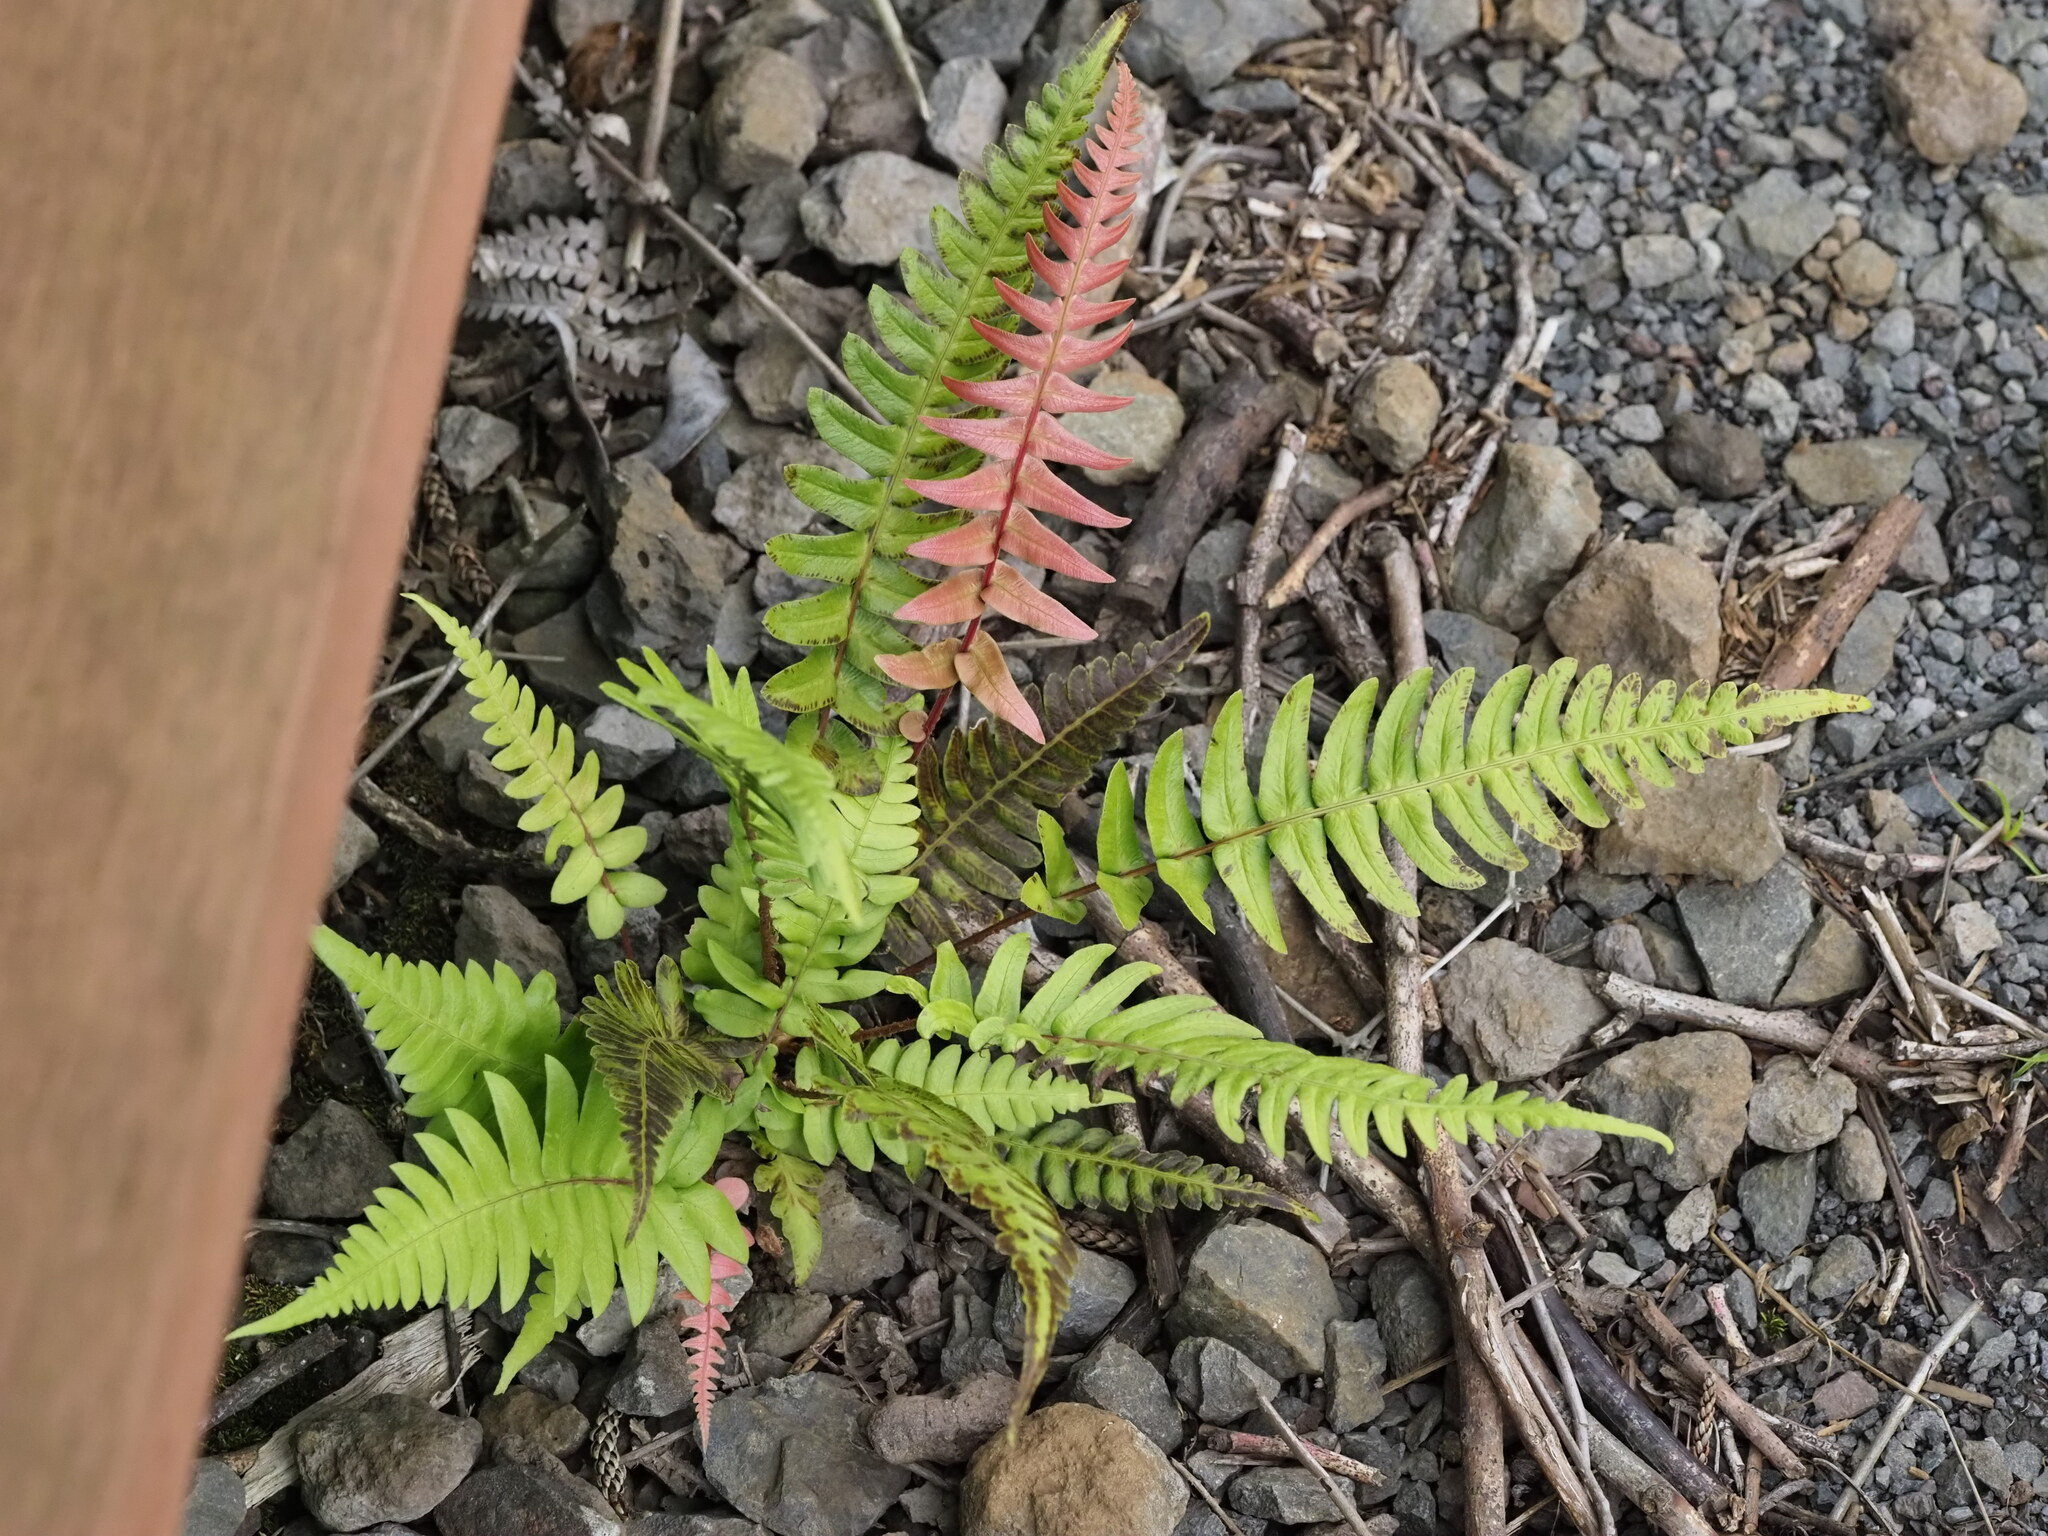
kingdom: Plantae
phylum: Tracheophyta
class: Polypodiopsida
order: Polypodiales
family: Blechnaceae
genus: Blechnum
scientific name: Blechnum appendiculatum
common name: Palm fern
